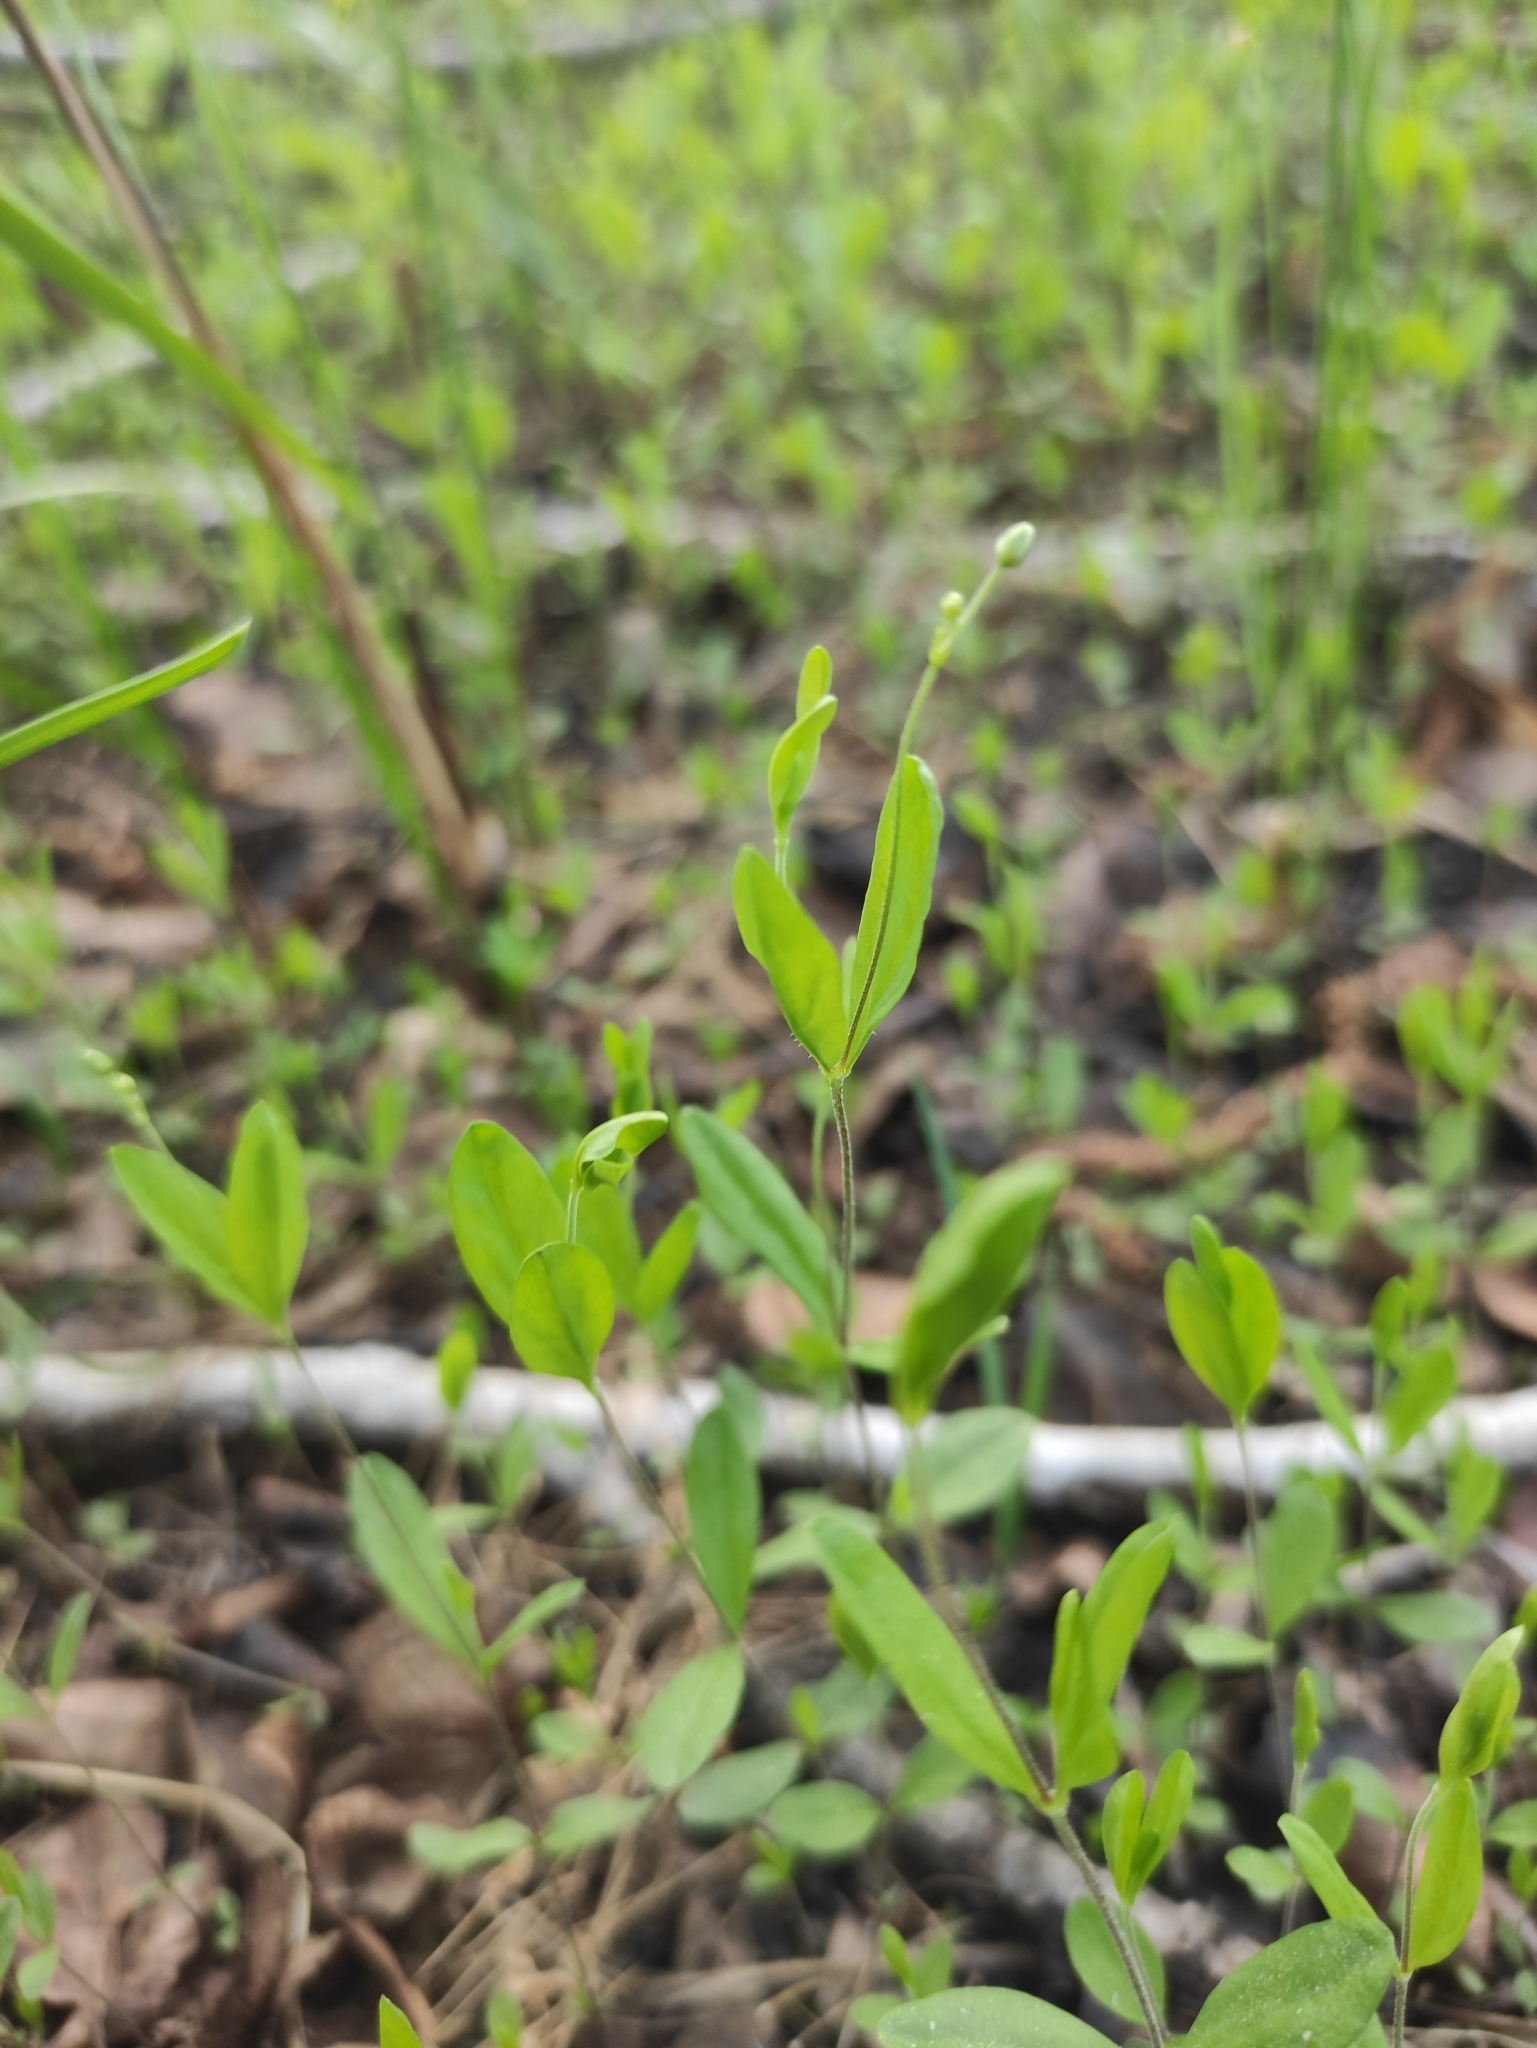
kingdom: Plantae
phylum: Tracheophyta
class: Magnoliopsida
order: Caryophyllales
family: Caryophyllaceae
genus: Moehringia
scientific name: Moehringia lateriflora
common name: Blunt-leaved sandwort
